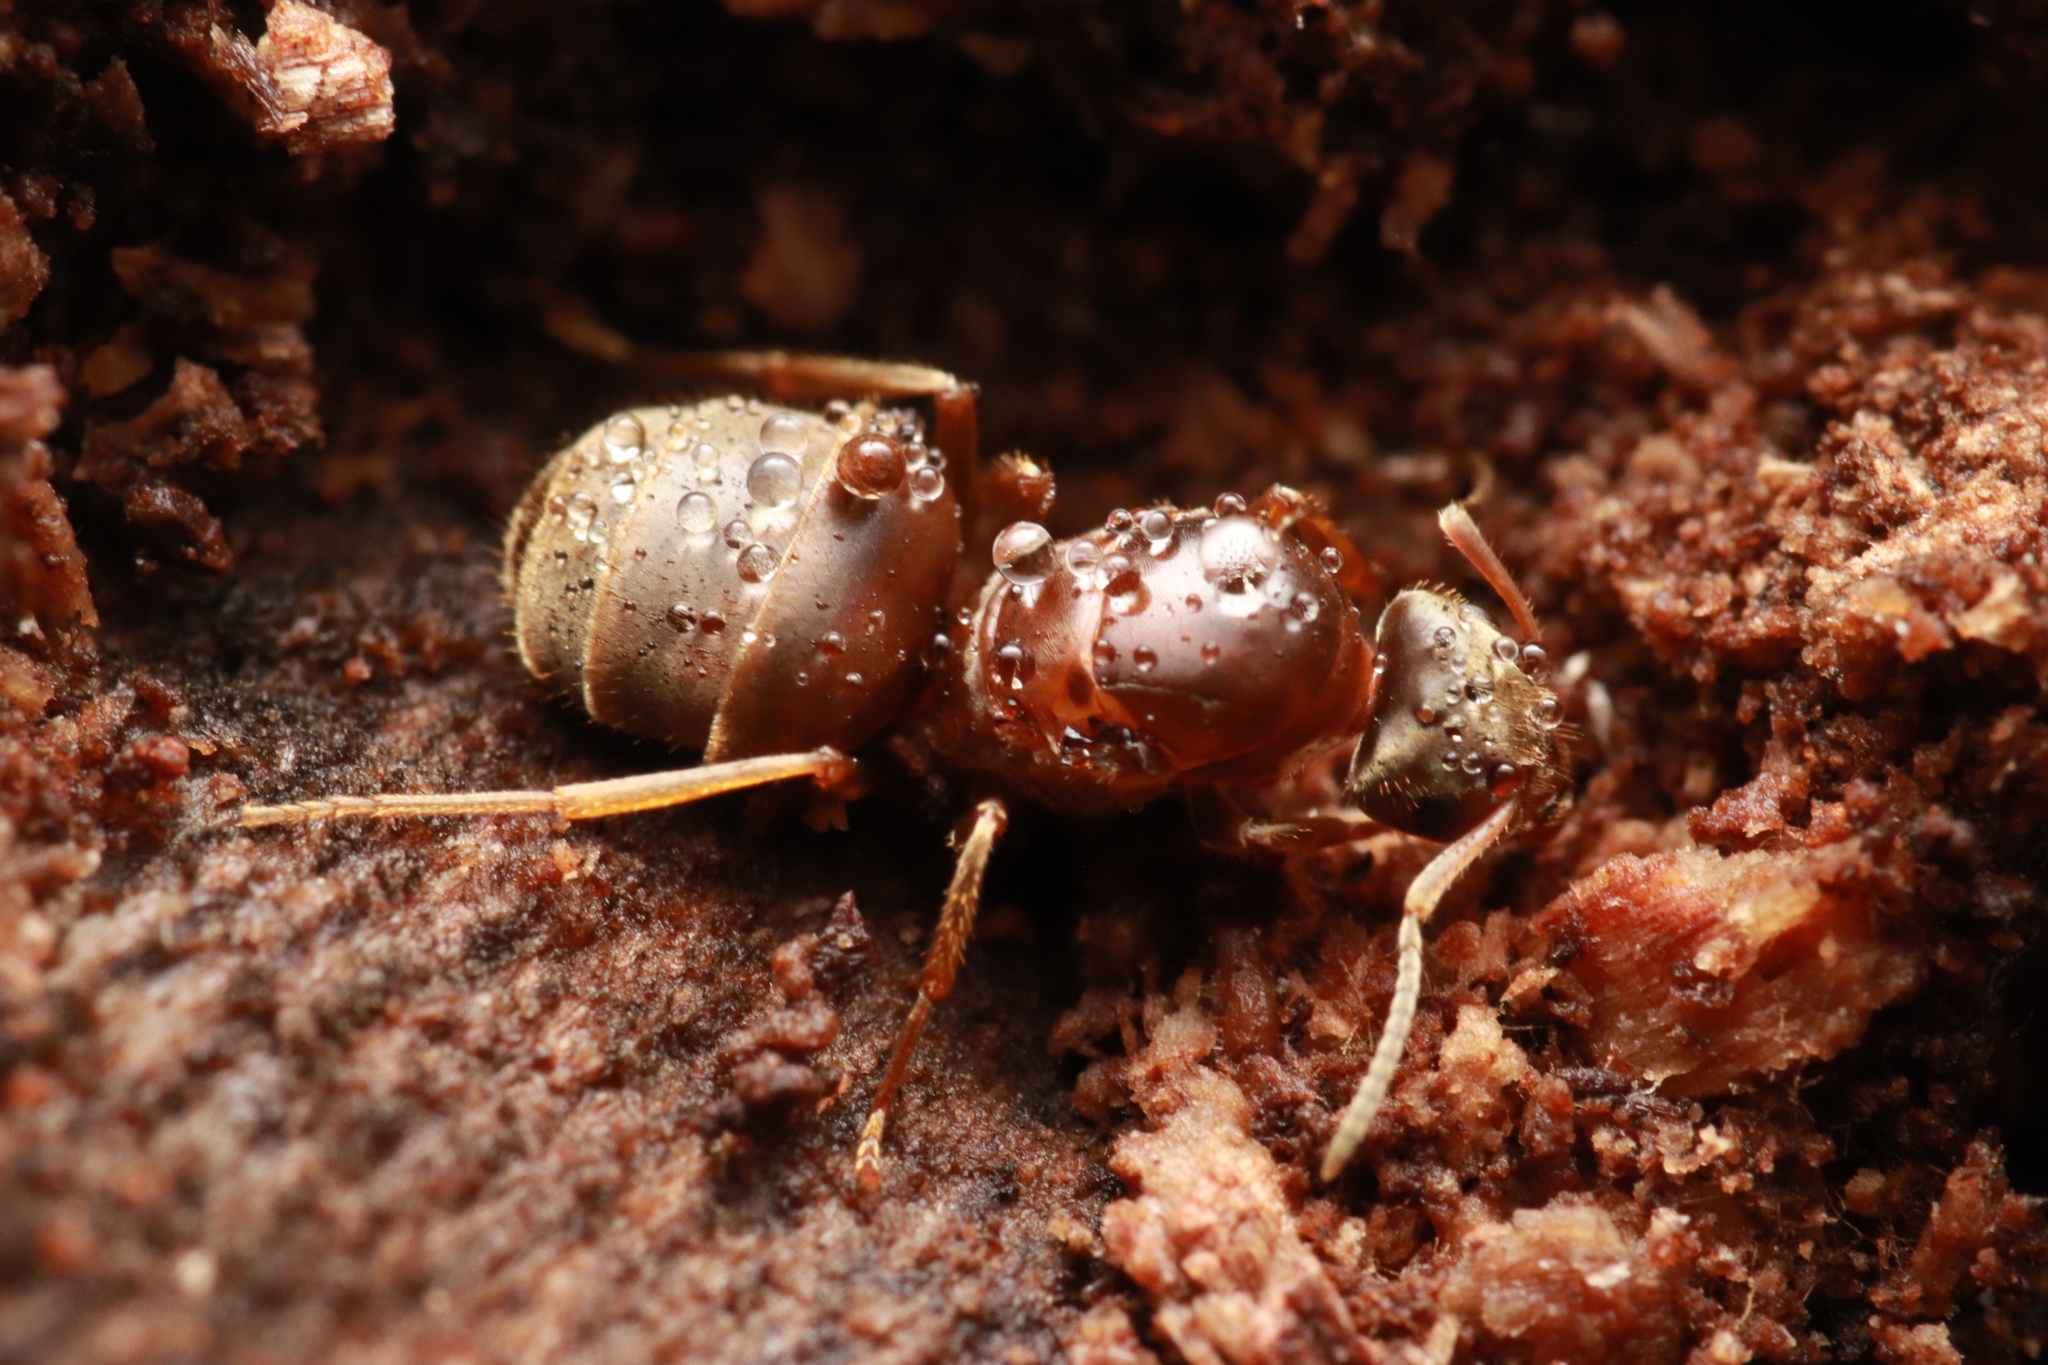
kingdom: Animalia
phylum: Arthropoda
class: Insecta
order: Hymenoptera
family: Formicidae
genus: Lasius
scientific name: Lasius emarginatus
